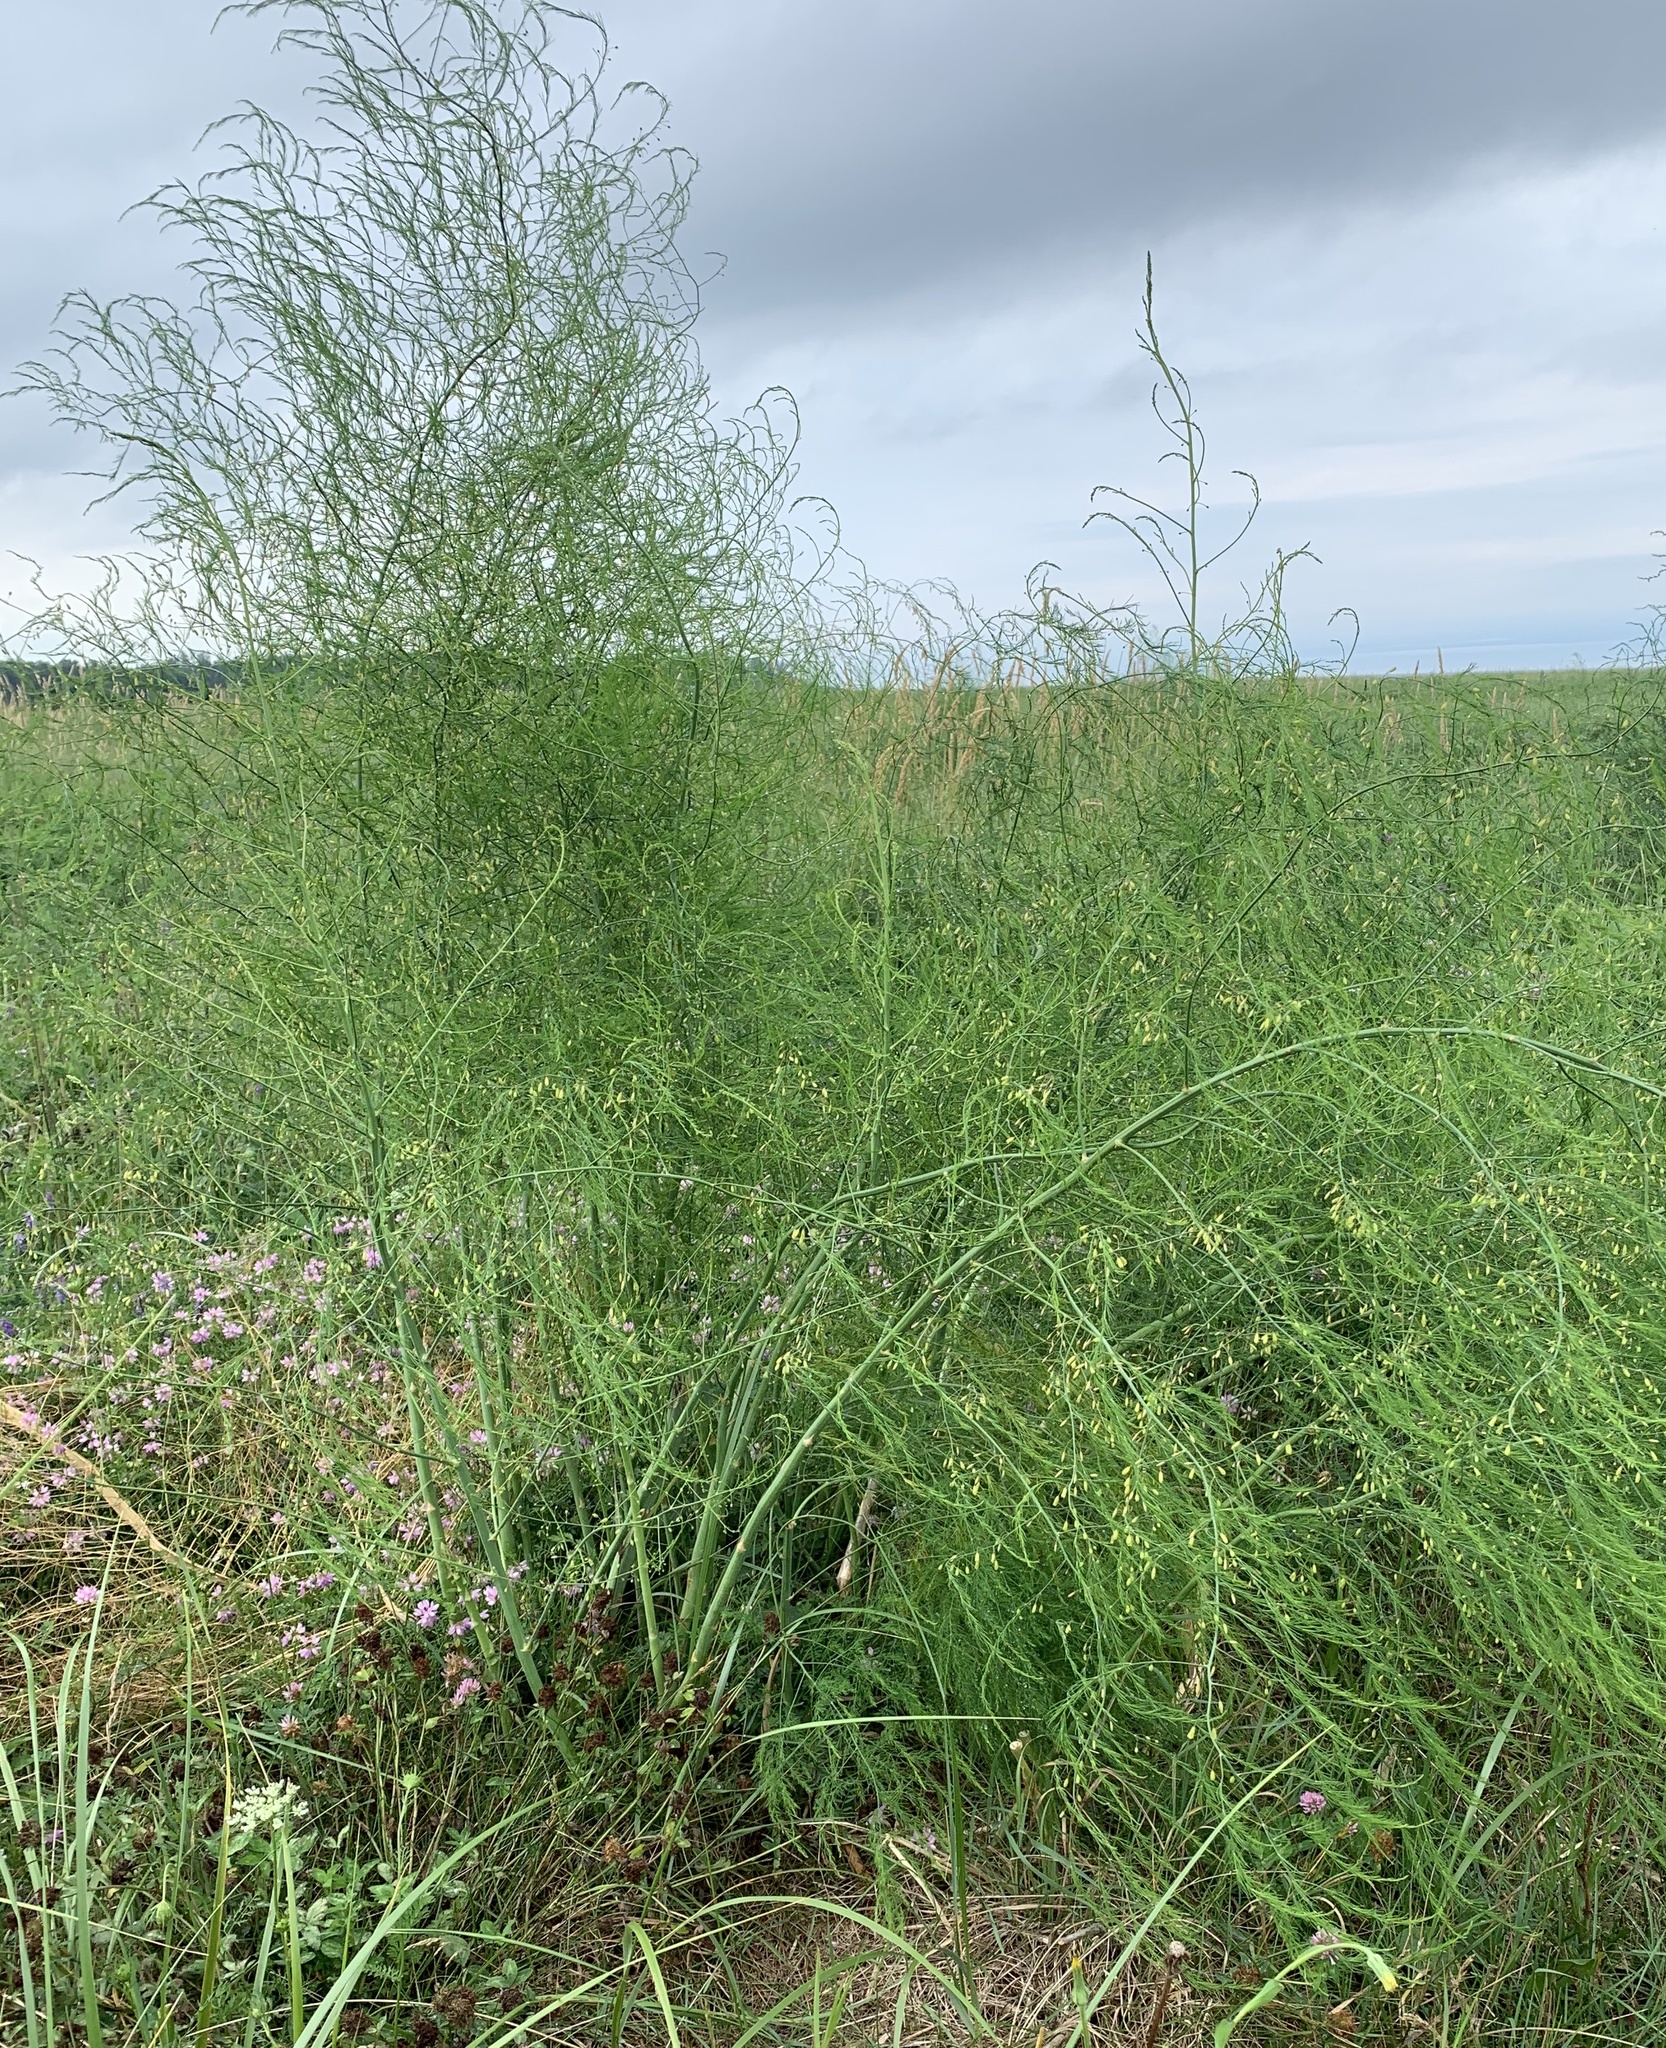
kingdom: Plantae
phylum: Tracheophyta
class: Liliopsida
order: Asparagales
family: Asparagaceae
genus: Asparagus
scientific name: Asparagus officinalis
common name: Garden asparagus
